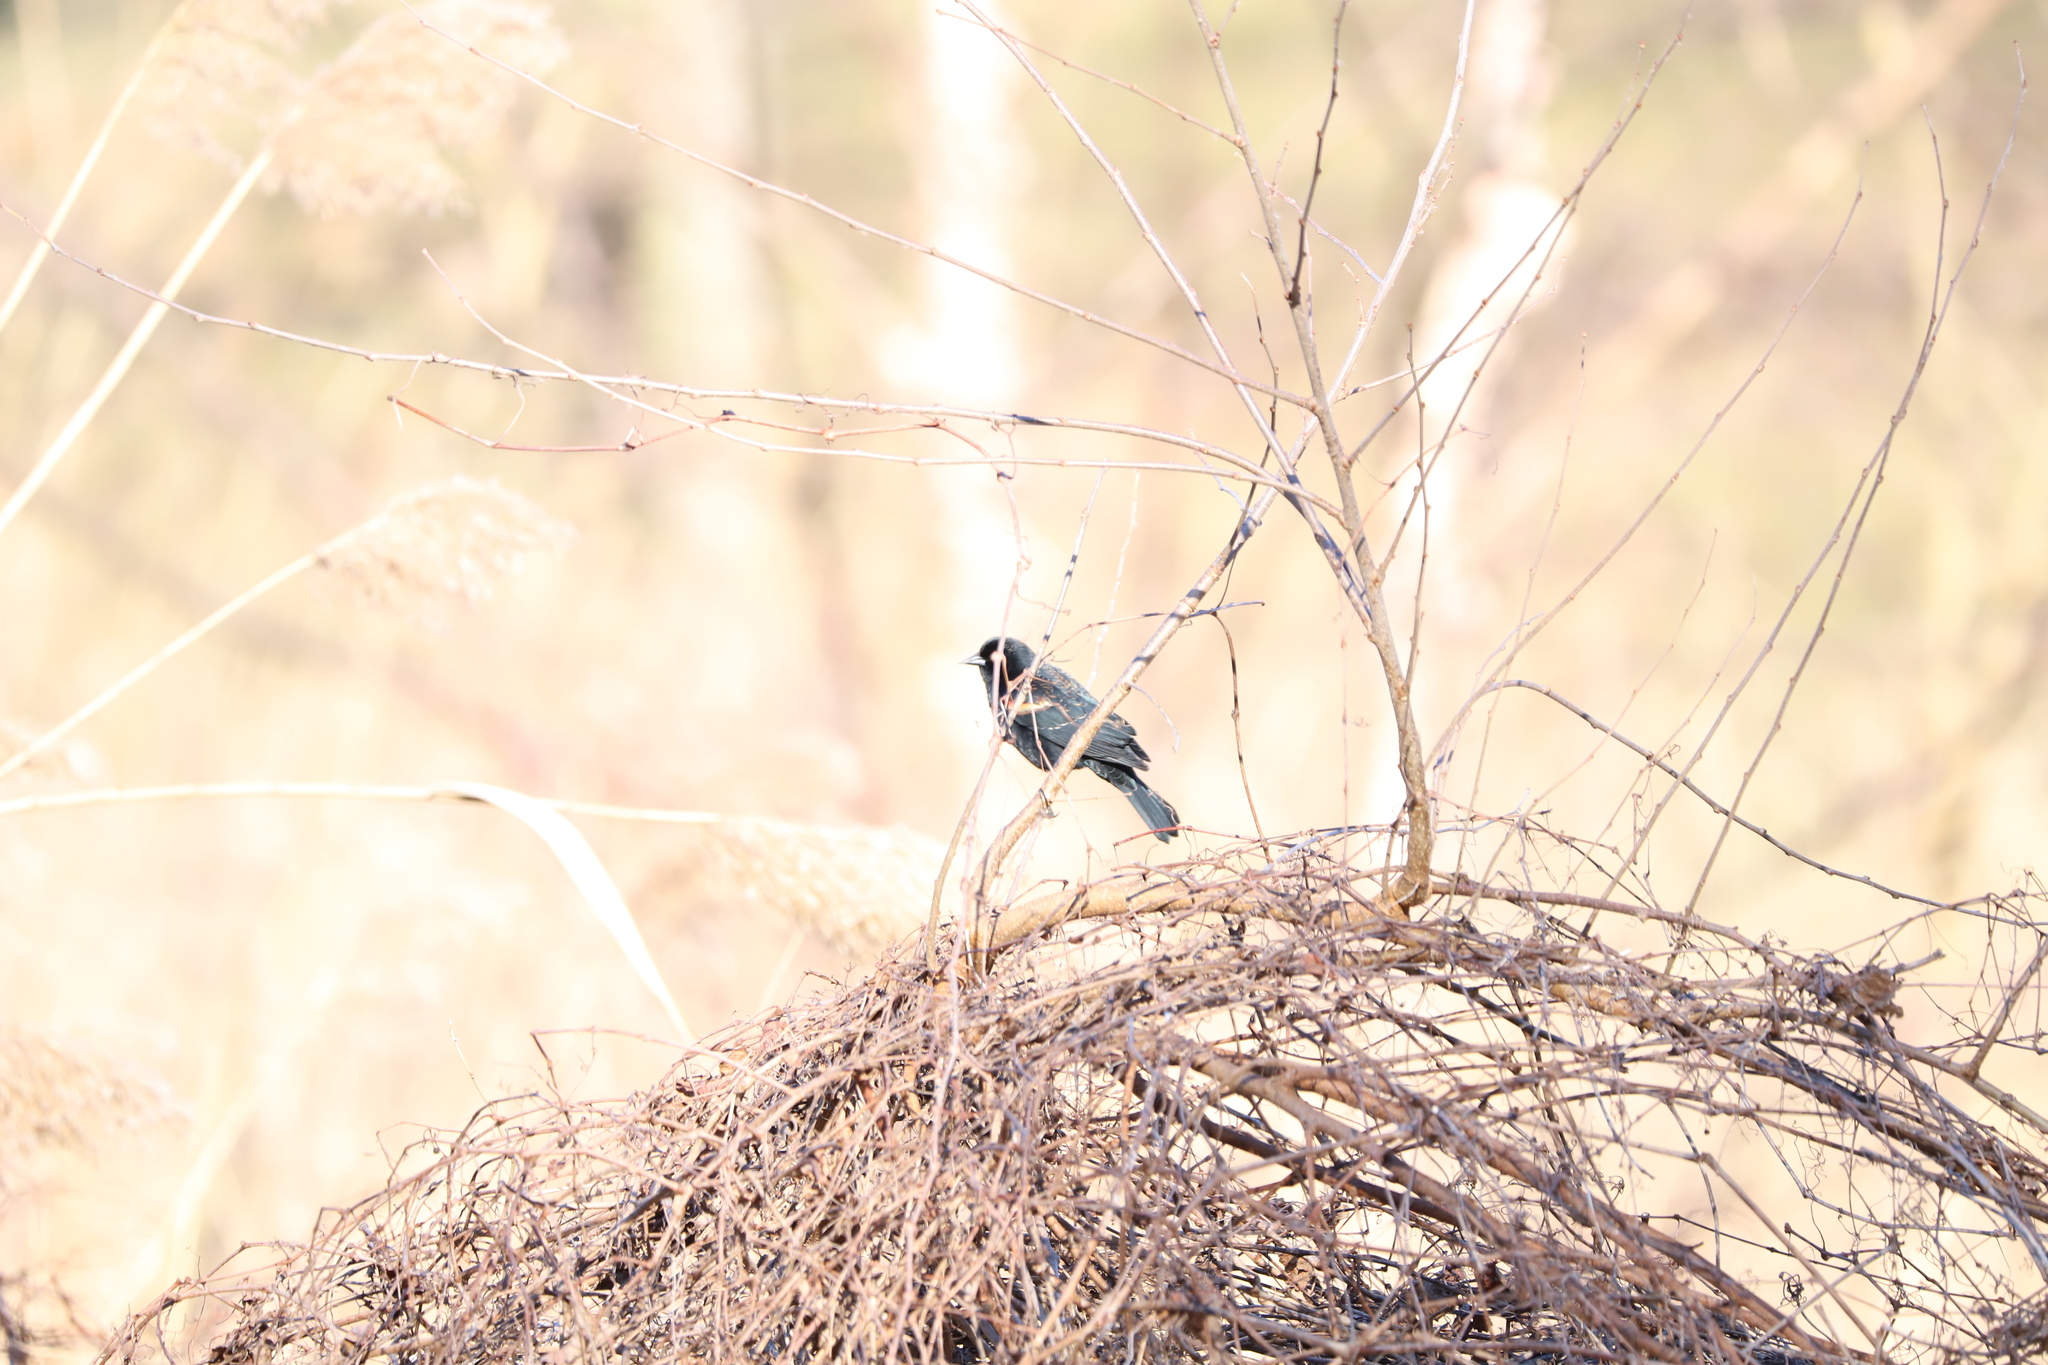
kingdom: Animalia
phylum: Chordata
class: Aves
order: Passeriformes
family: Icteridae
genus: Agelaius
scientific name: Agelaius phoeniceus
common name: Red-winged blackbird
